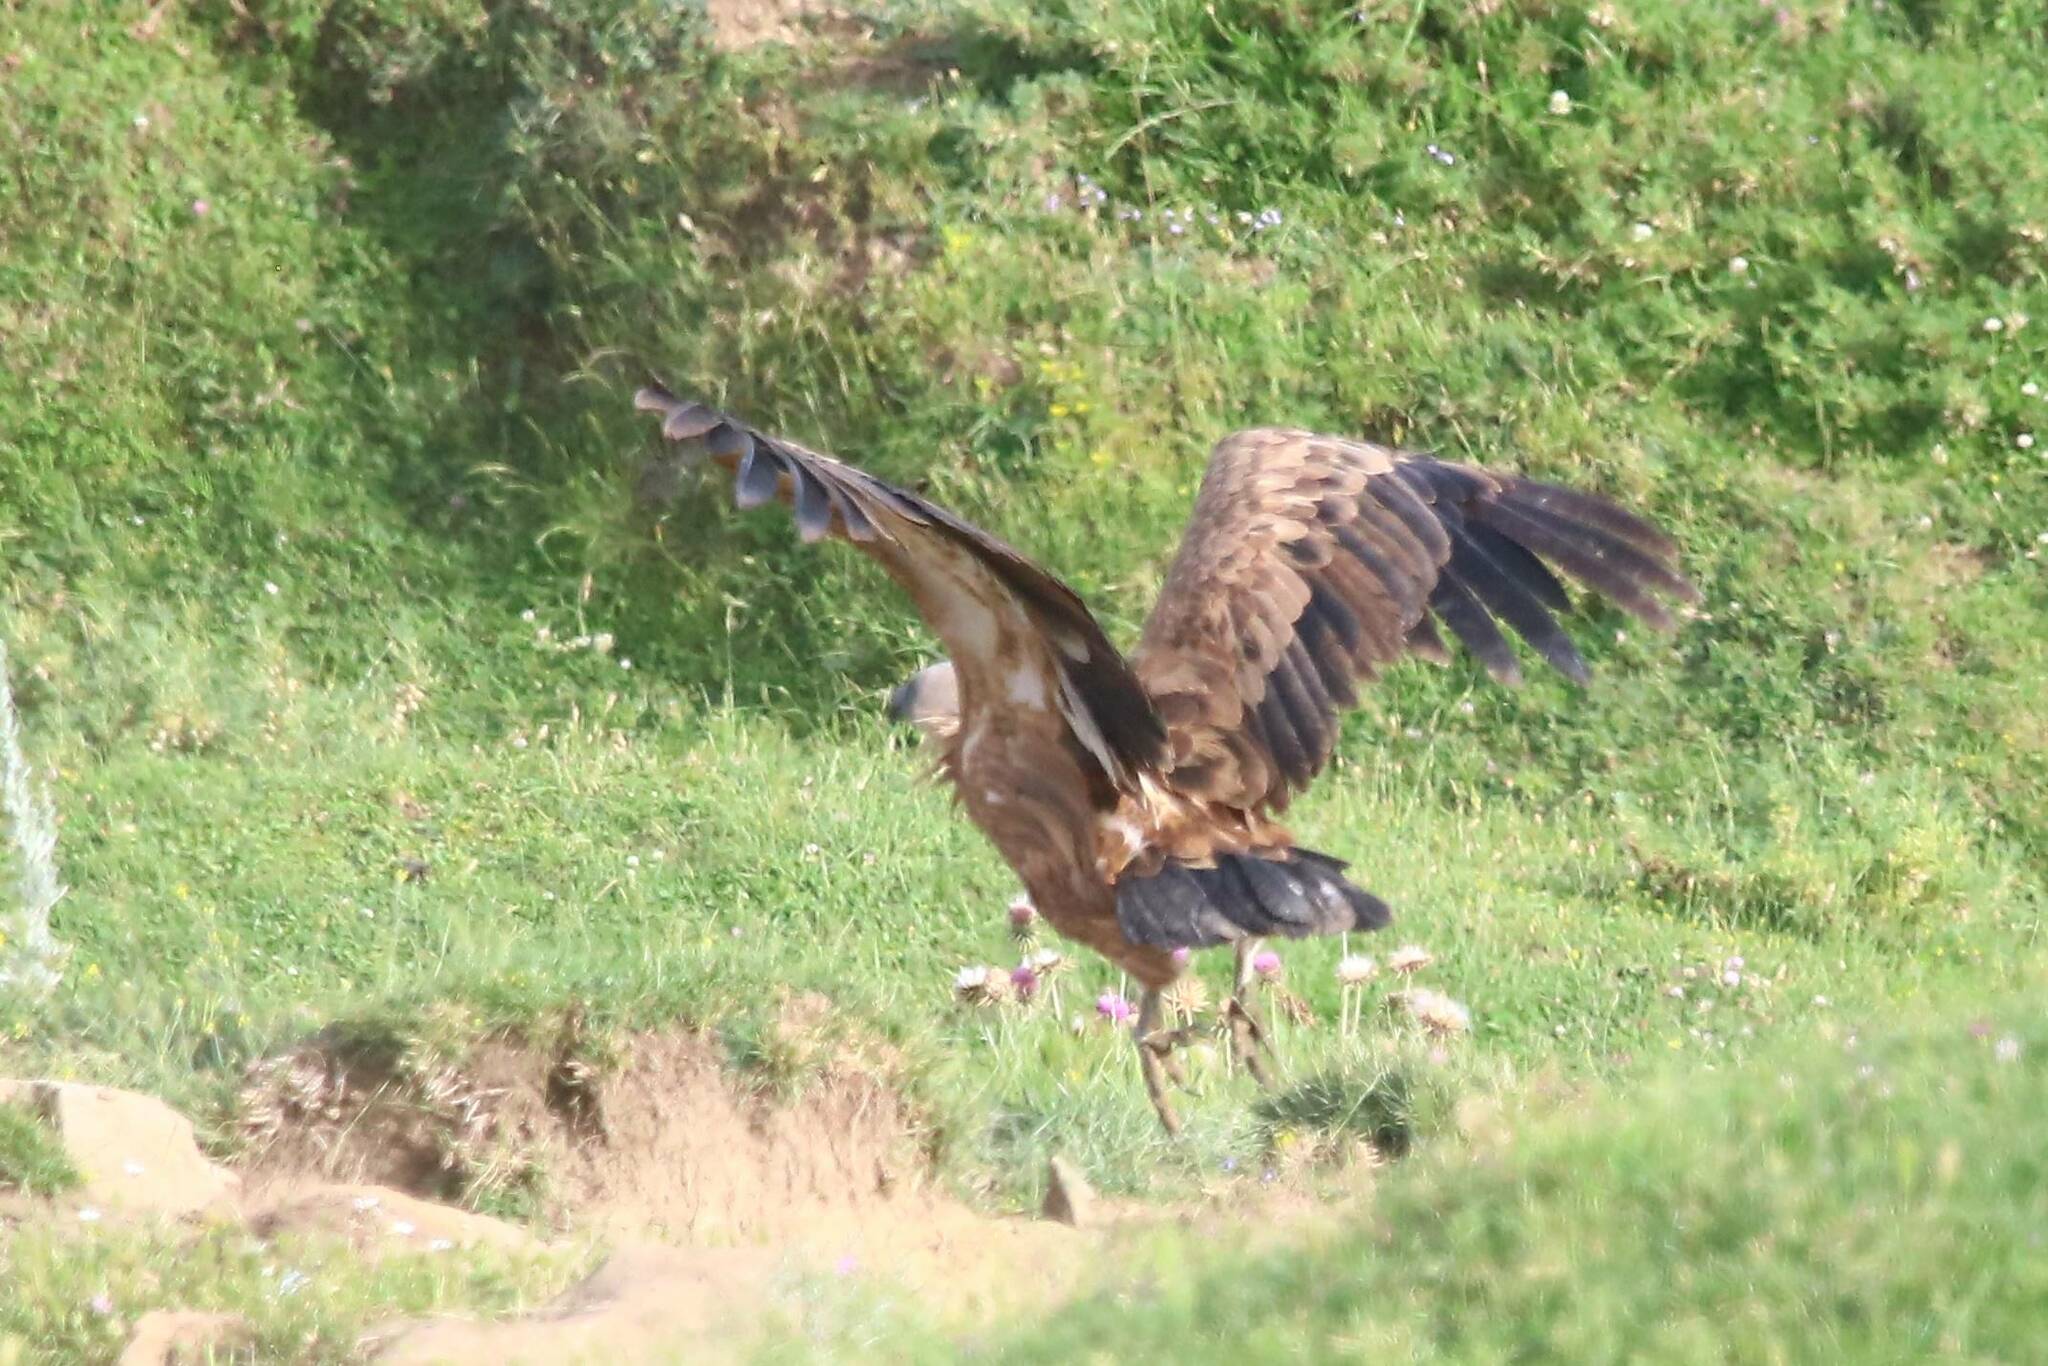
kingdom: Animalia
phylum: Chordata
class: Aves
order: Accipitriformes
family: Accipitridae
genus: Gyps
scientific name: Gyps fulvus
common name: Griffon vulture
